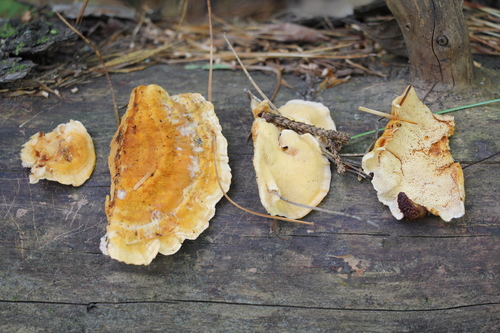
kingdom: Fungi
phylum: Basidiomycota
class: Agaricomycetes
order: Polyporales
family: Pycnoporellaceae
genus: Pycnoporellus
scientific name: Pycnoporellus fulgens
